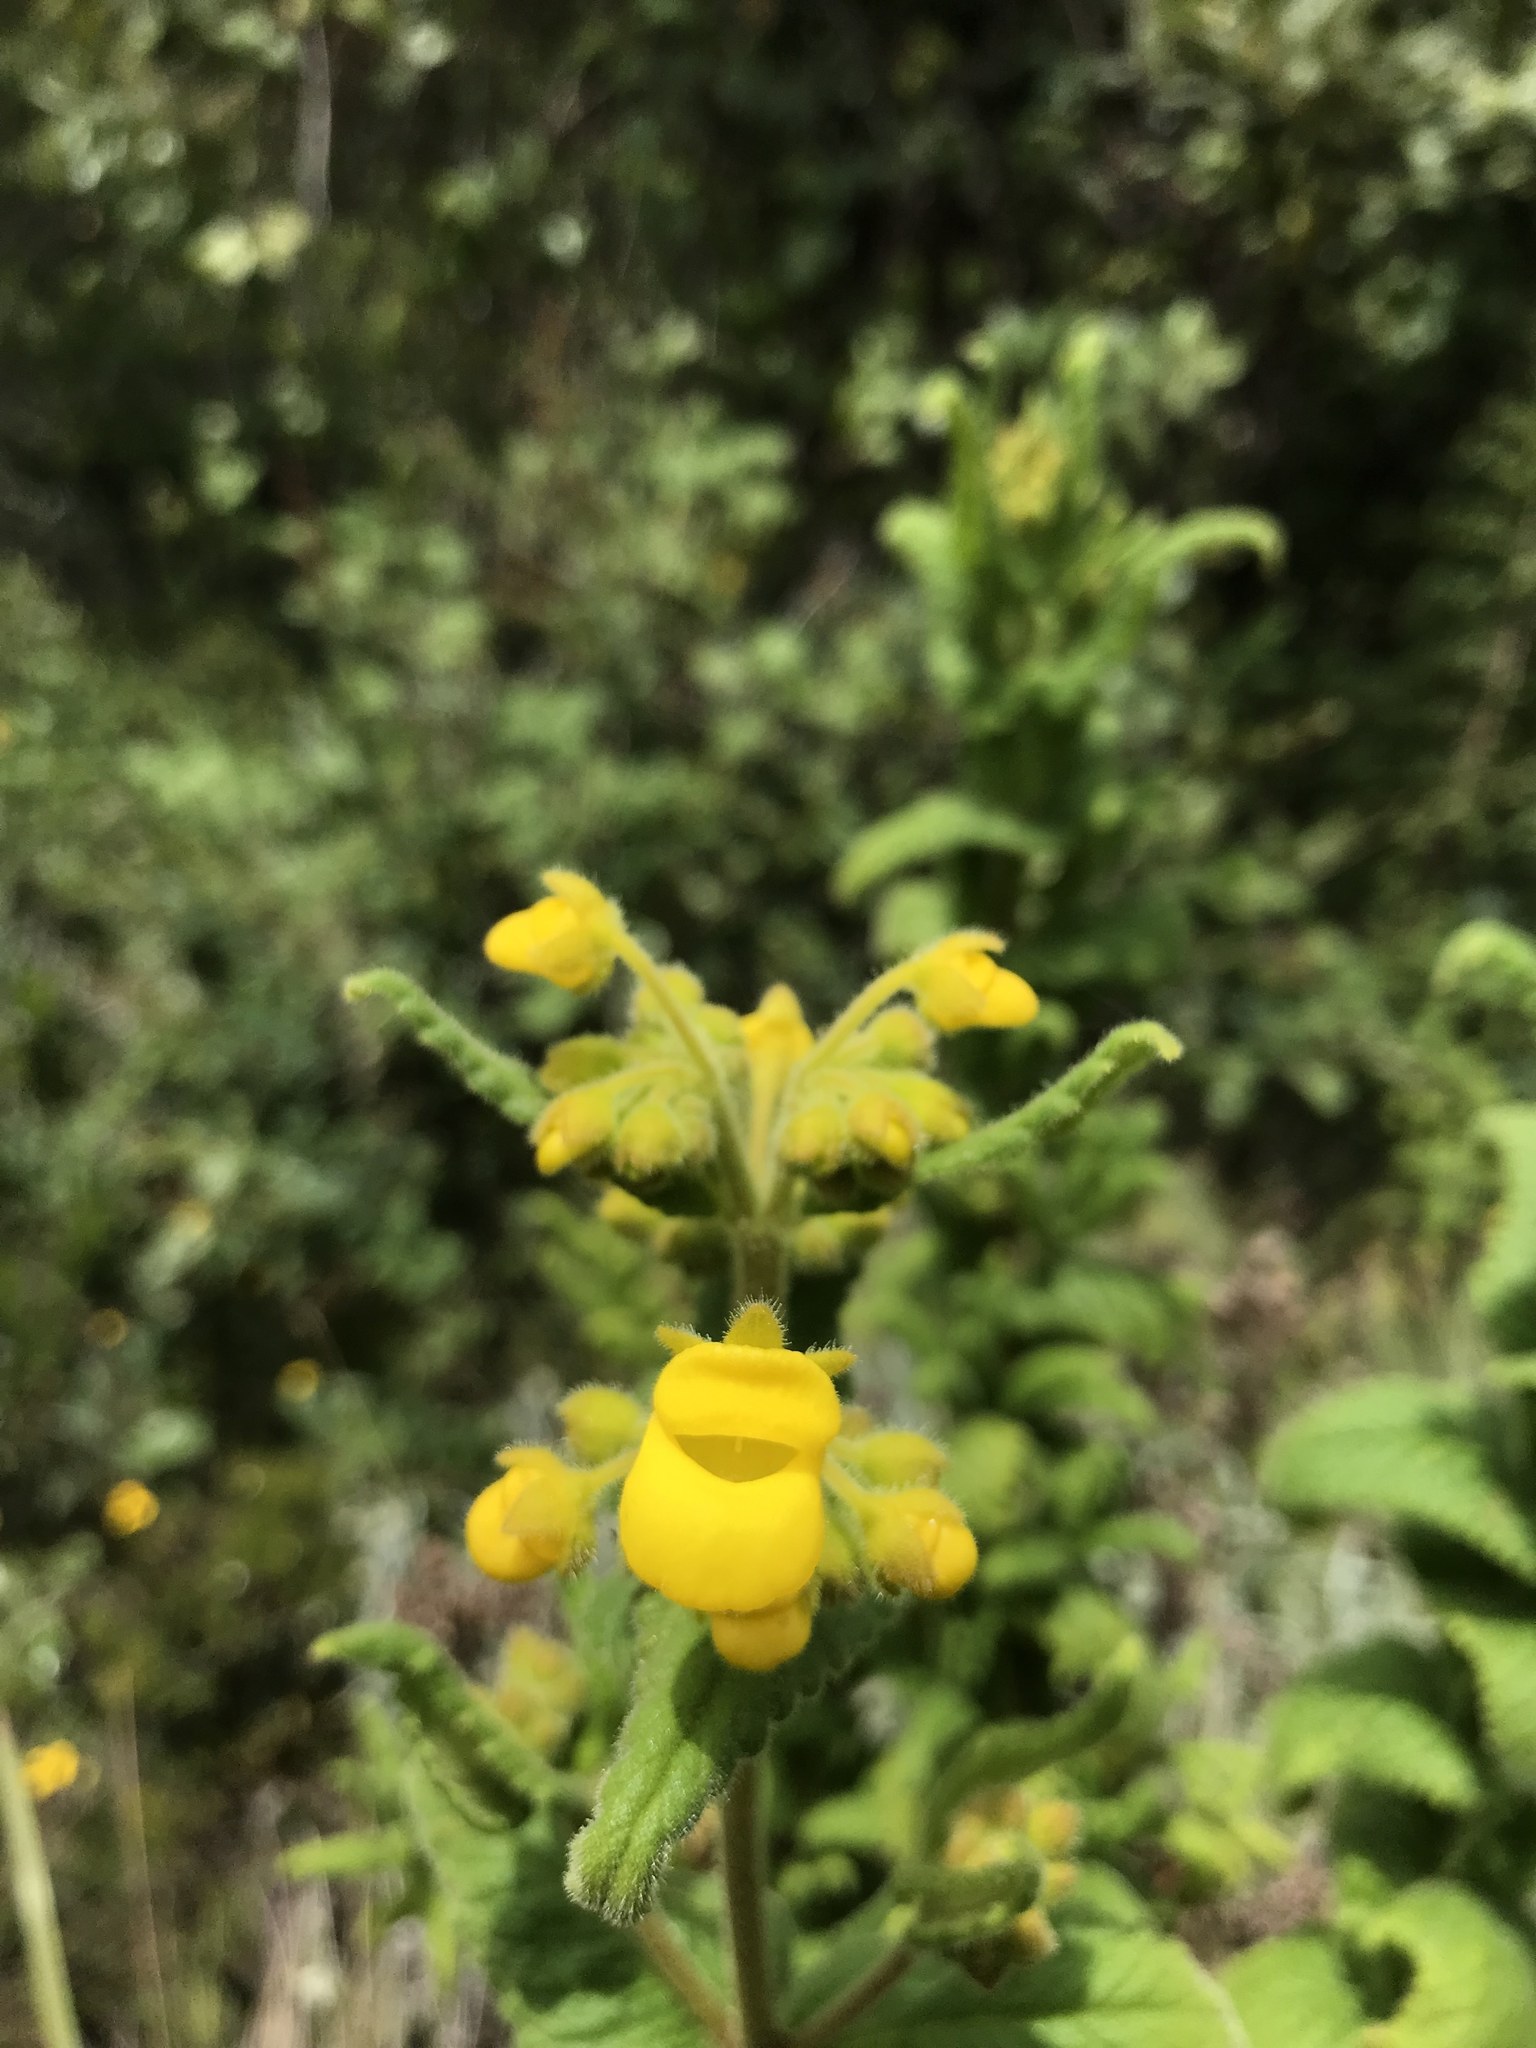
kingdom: Plantae
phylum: Tracheophyta
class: Magnoliopsida
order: Lamiales
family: Calceolariaceae
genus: Calceolaria
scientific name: Calceolaria crenata
